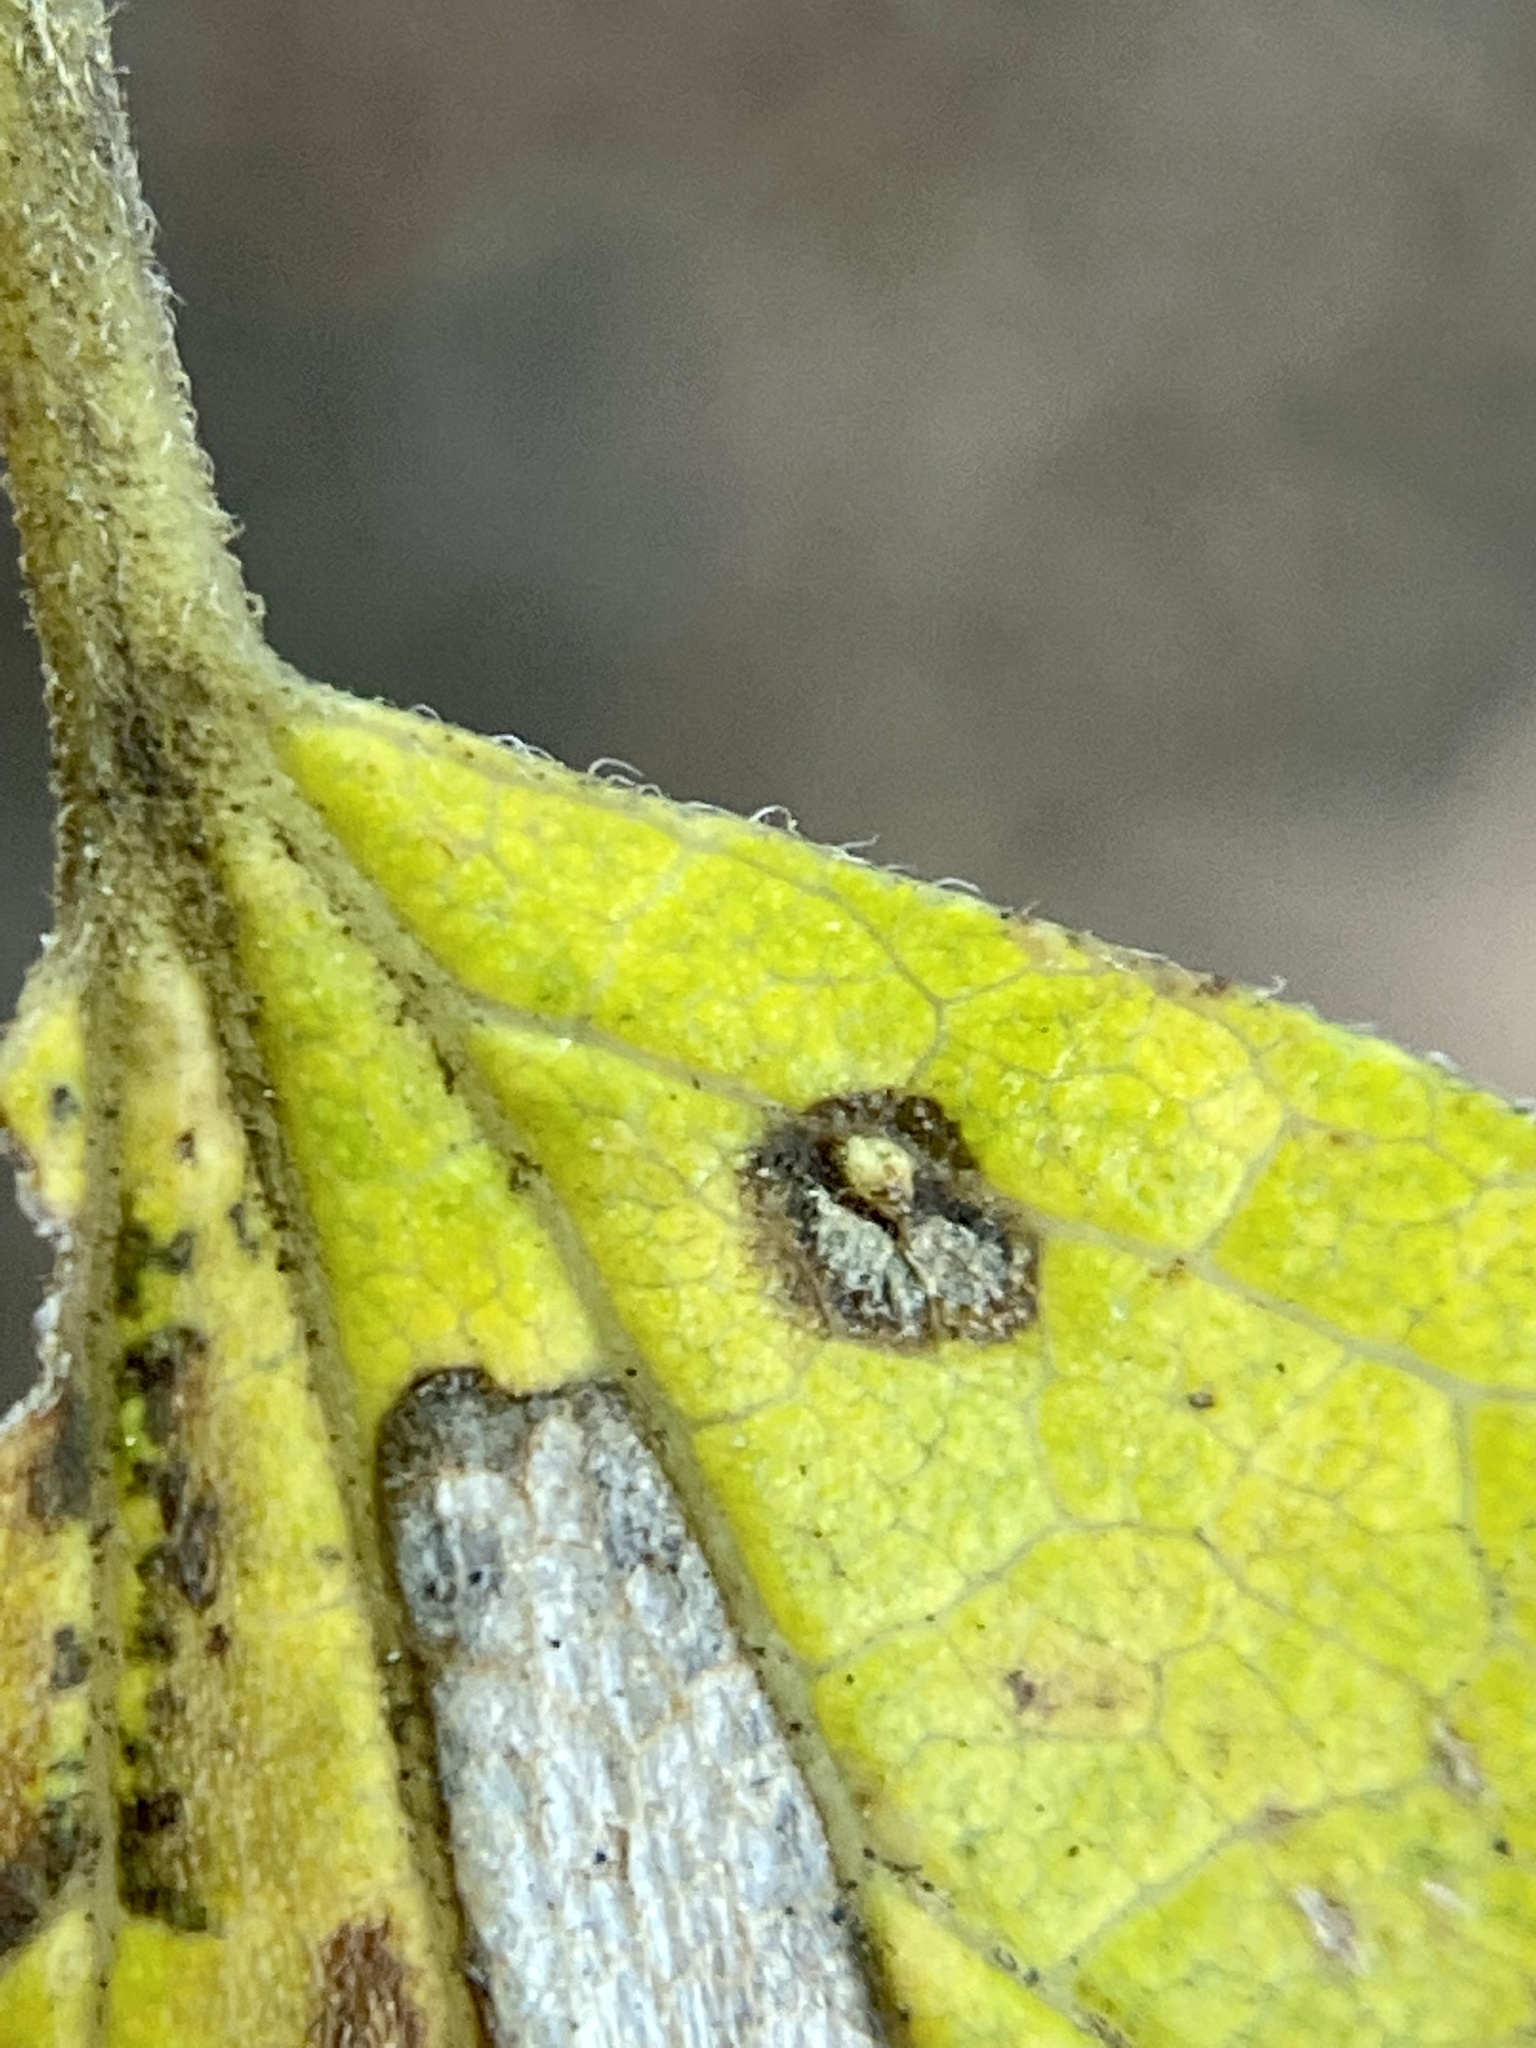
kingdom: Animalia
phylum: Arthropoda
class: Insecta
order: Diptera
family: Cecidomyiidae
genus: Celticecis
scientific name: Celticecis aciculata
